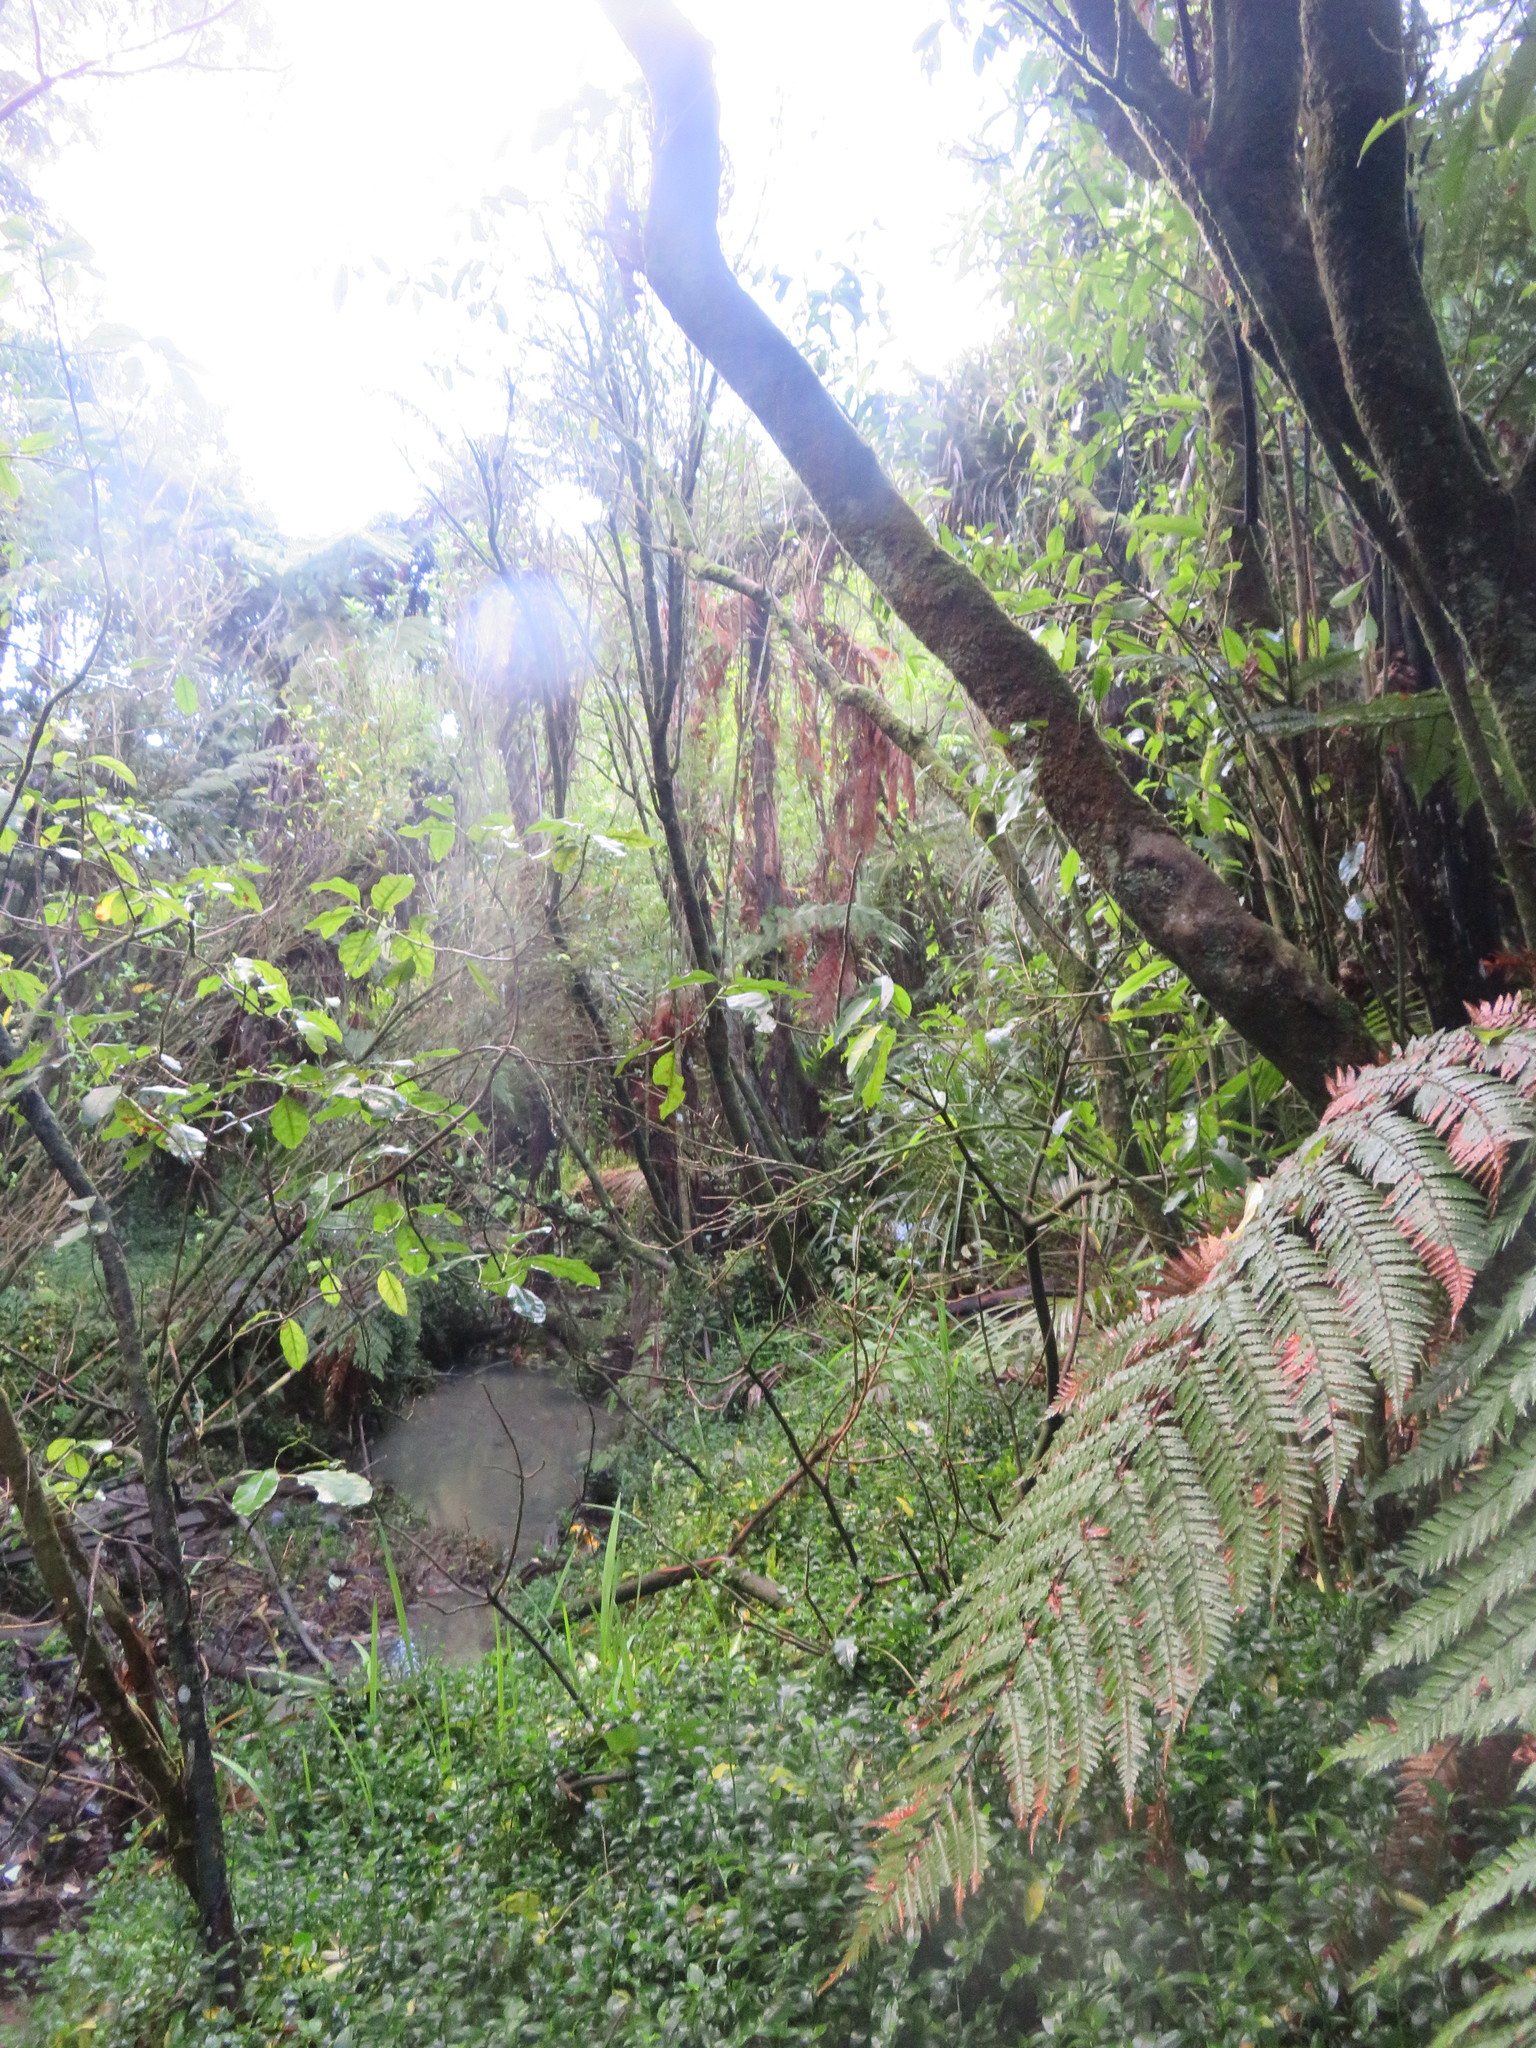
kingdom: Plantae
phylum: Tracheophyta
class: Liliopsida
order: Commelinales
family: Commelinaceae
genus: Tradescantia
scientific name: Tradescantia fluminensis
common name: Wandering-jew
